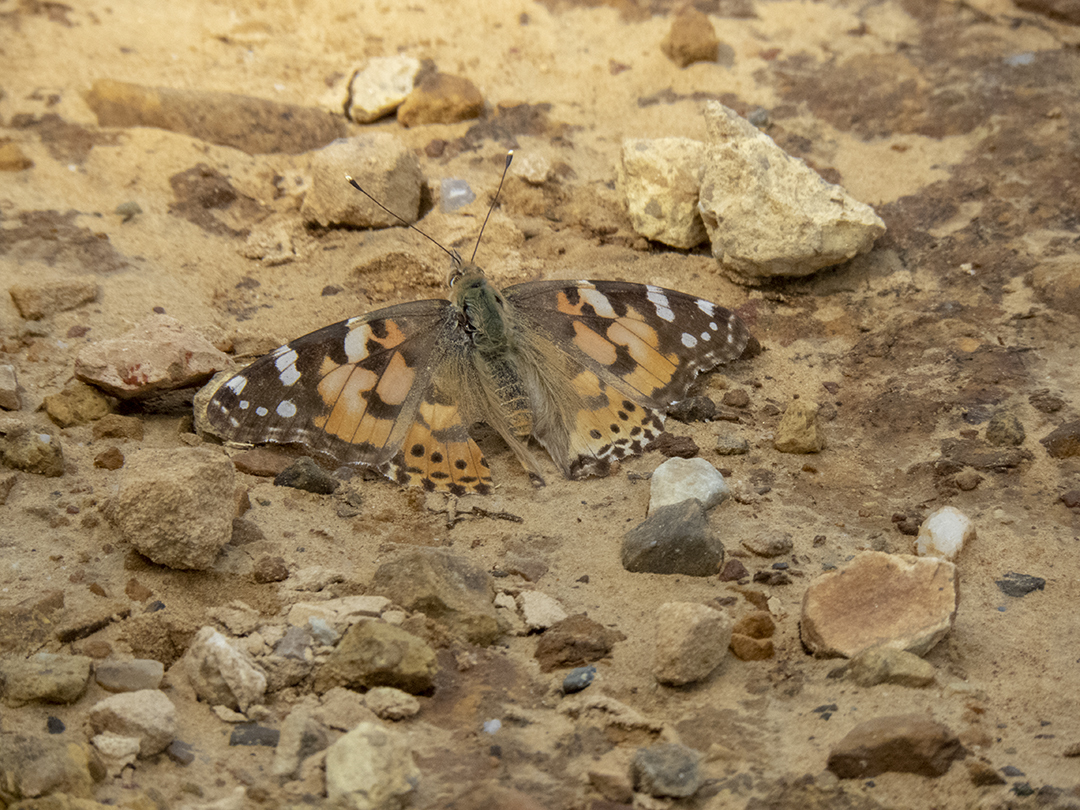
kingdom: Animalia
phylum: Arthropoda
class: Insecta
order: Lepidoptera
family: Nymphalidae
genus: Vanessa
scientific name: Vanessa cardui
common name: Painted lady
